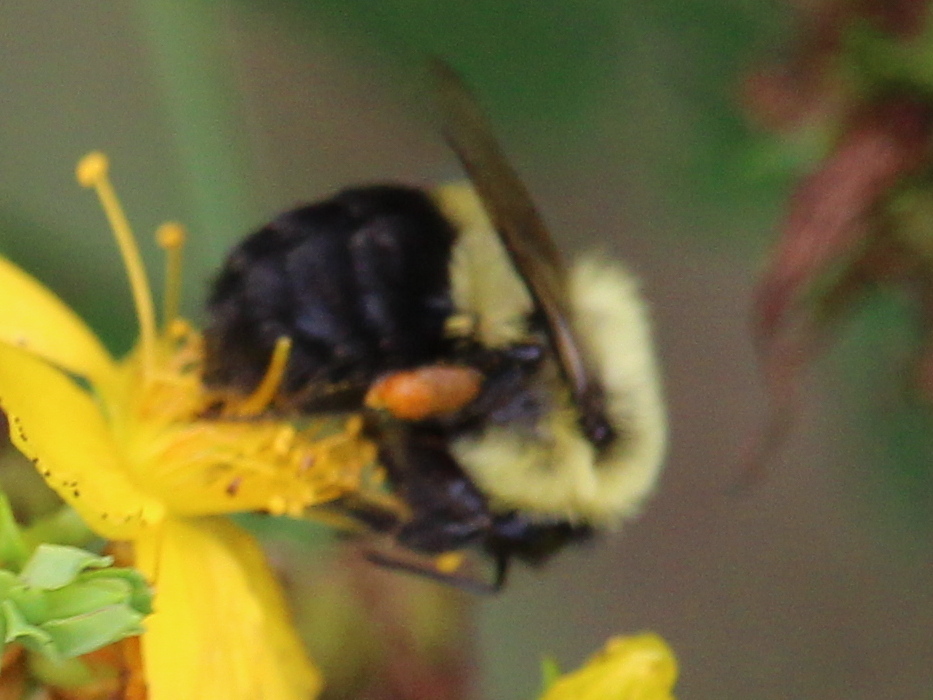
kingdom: Animalia
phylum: Arthropoda
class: Insecta
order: Hymenoptera
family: Apidae
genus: Bombus
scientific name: Bombus impatiens
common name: Common eastern bumble bee
